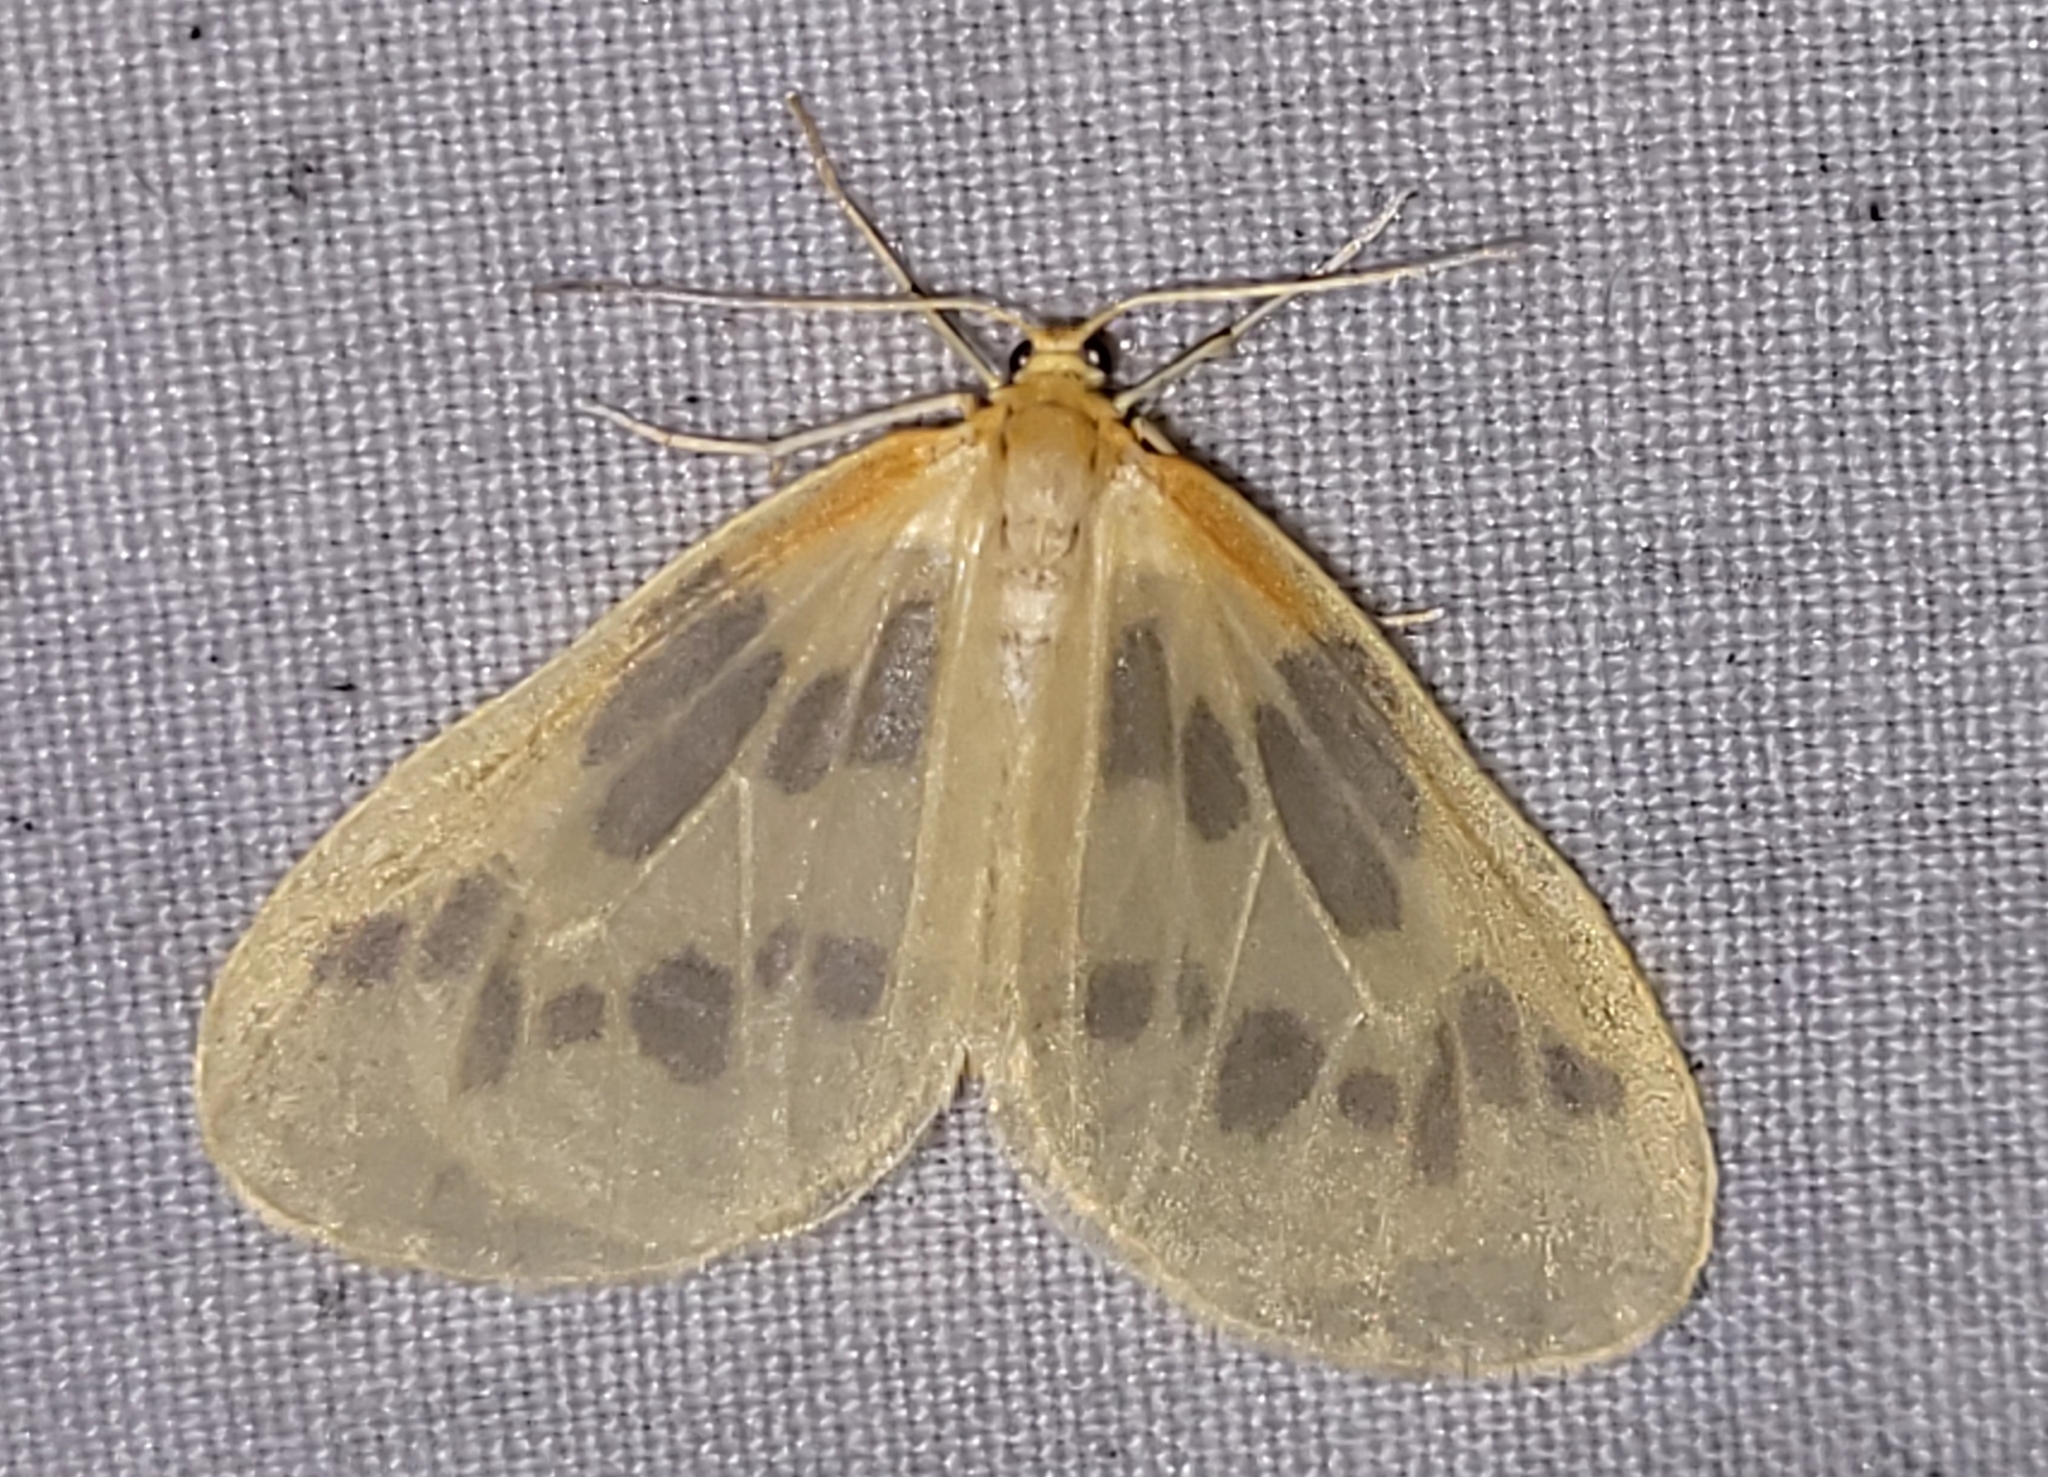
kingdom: Animalia
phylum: Arthropoda
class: Insecta
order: Lepidoptera
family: Geometridae
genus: Eubaphe
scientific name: Eubaphe mendica
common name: Beggar
